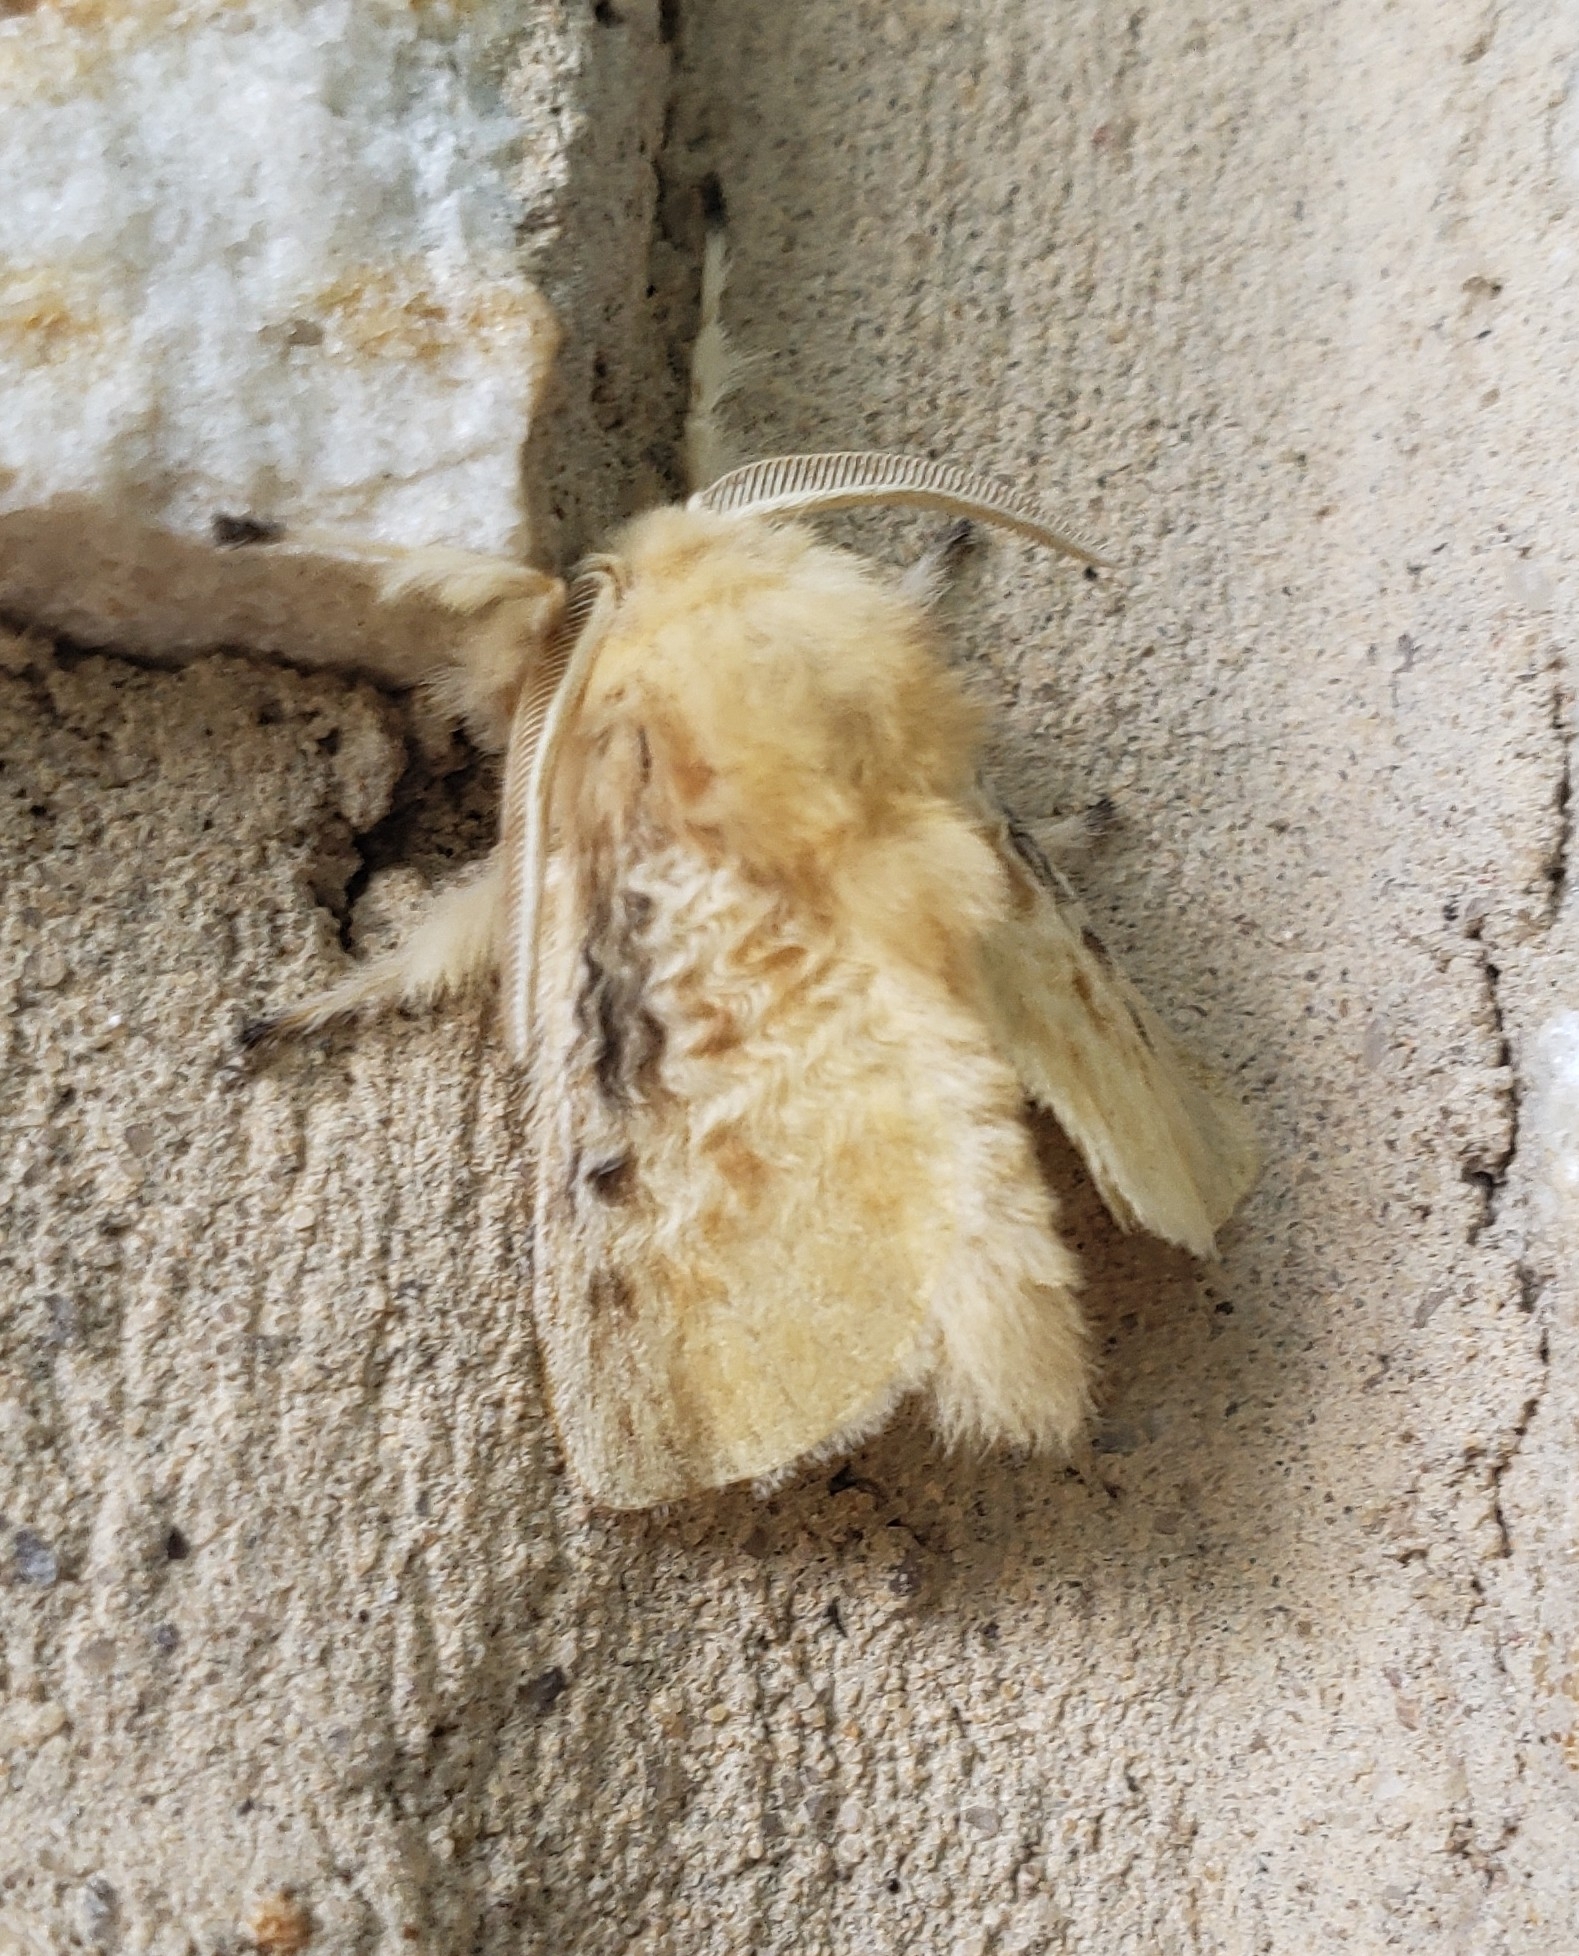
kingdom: Animalia
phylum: Arthropoda
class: Insecta
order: Lepidoptera
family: Megalopygidae
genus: Megalopyge
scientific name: Megalopyge crispata
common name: Black-waved flannel moth
